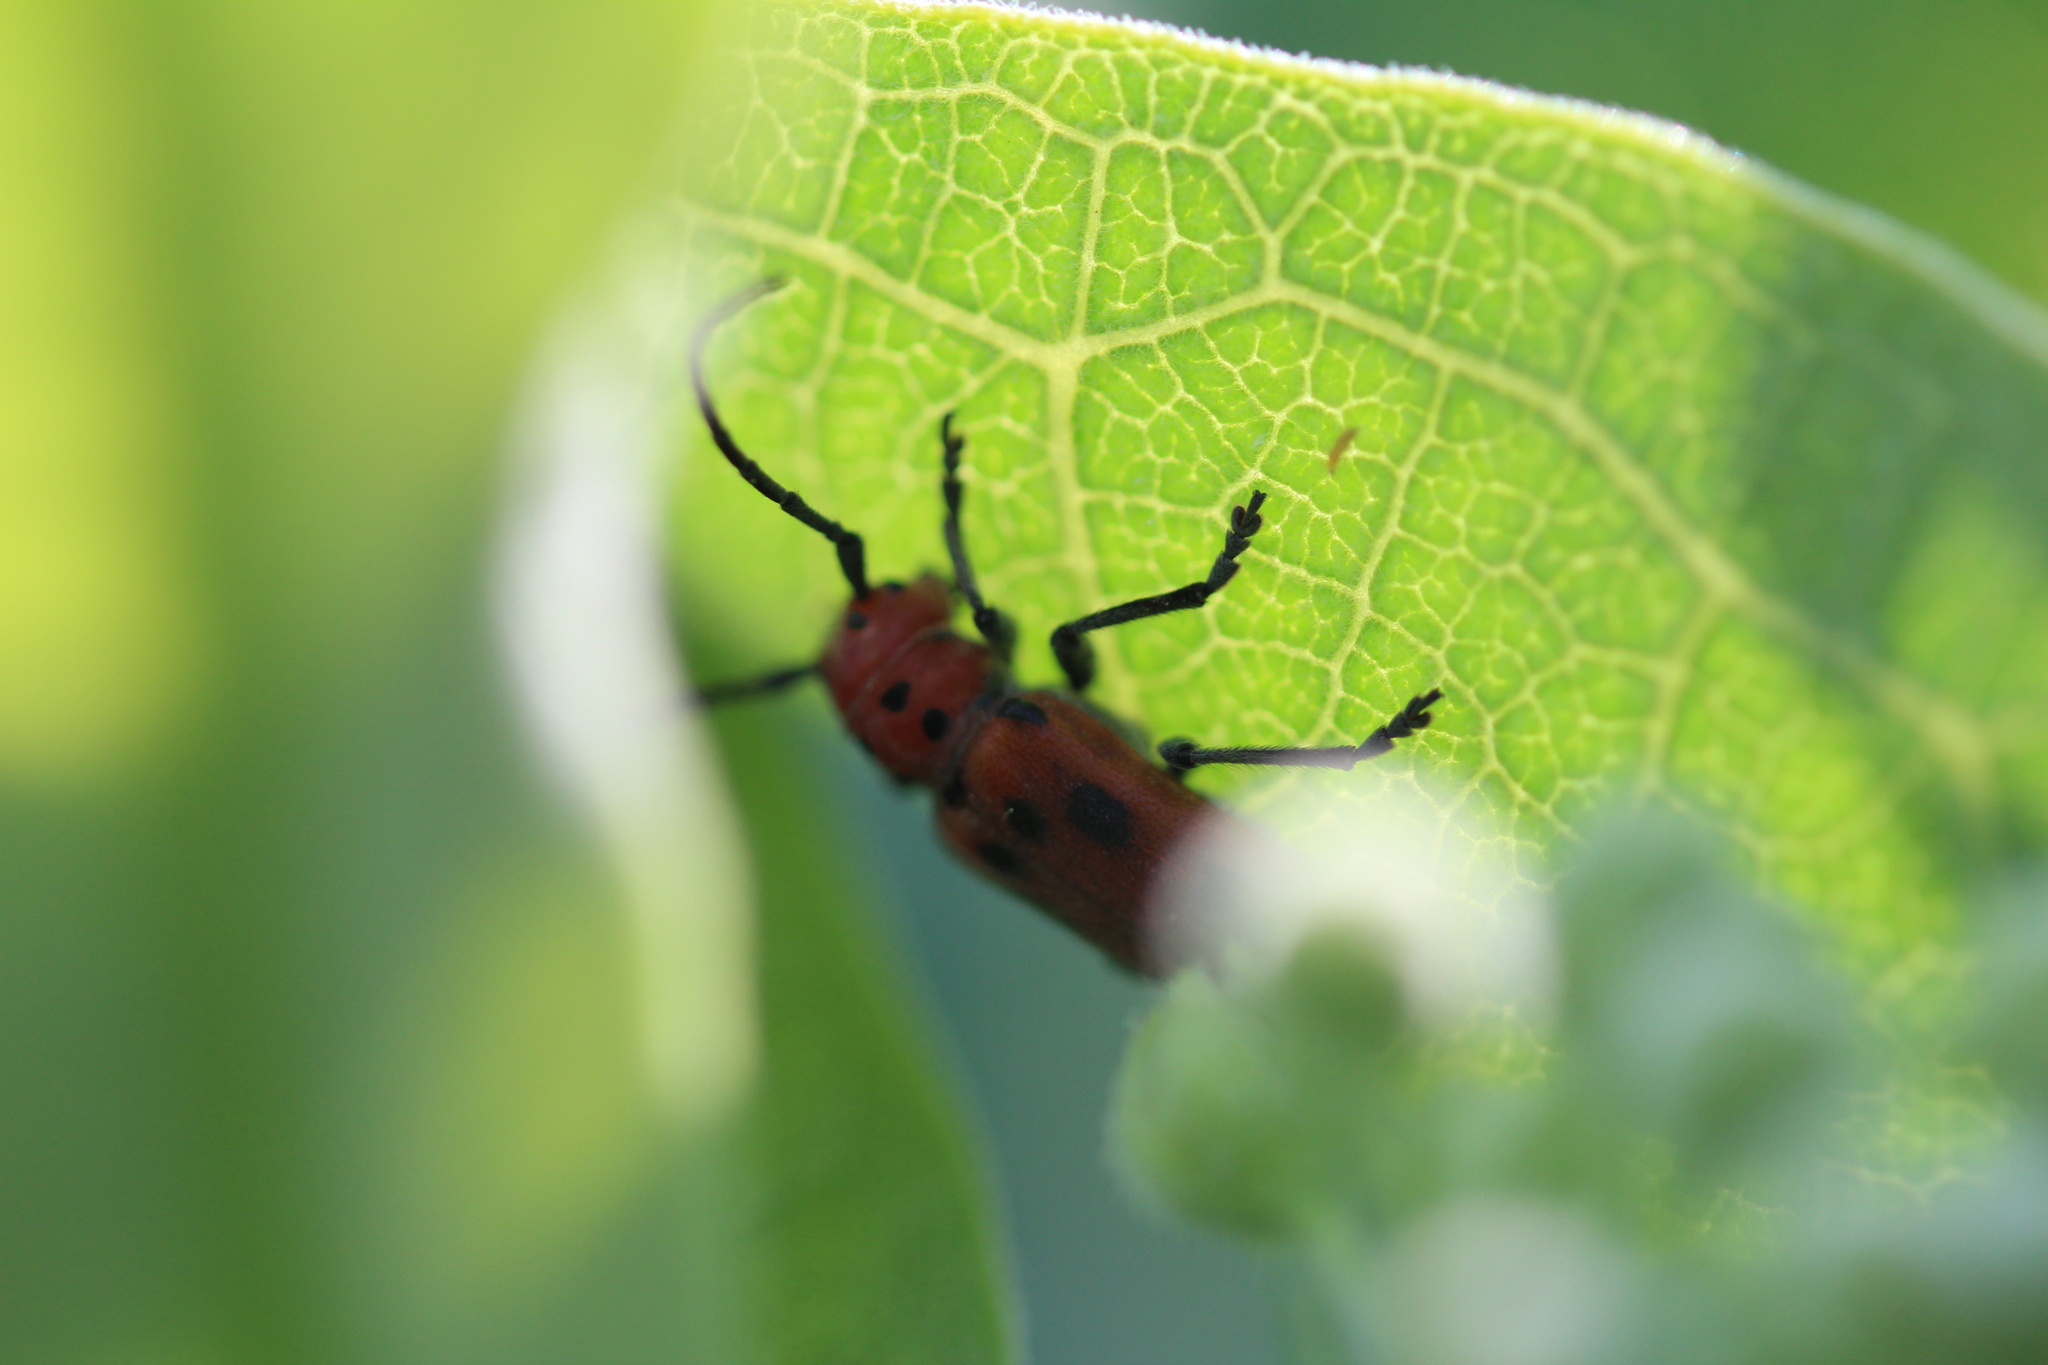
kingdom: Animalia
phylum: Arthropoda
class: Insecta
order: Coleoptera
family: Cerambycidae
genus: Tetraopes
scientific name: Tetraopes tetrophthalmus
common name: Red milkweed beetle
